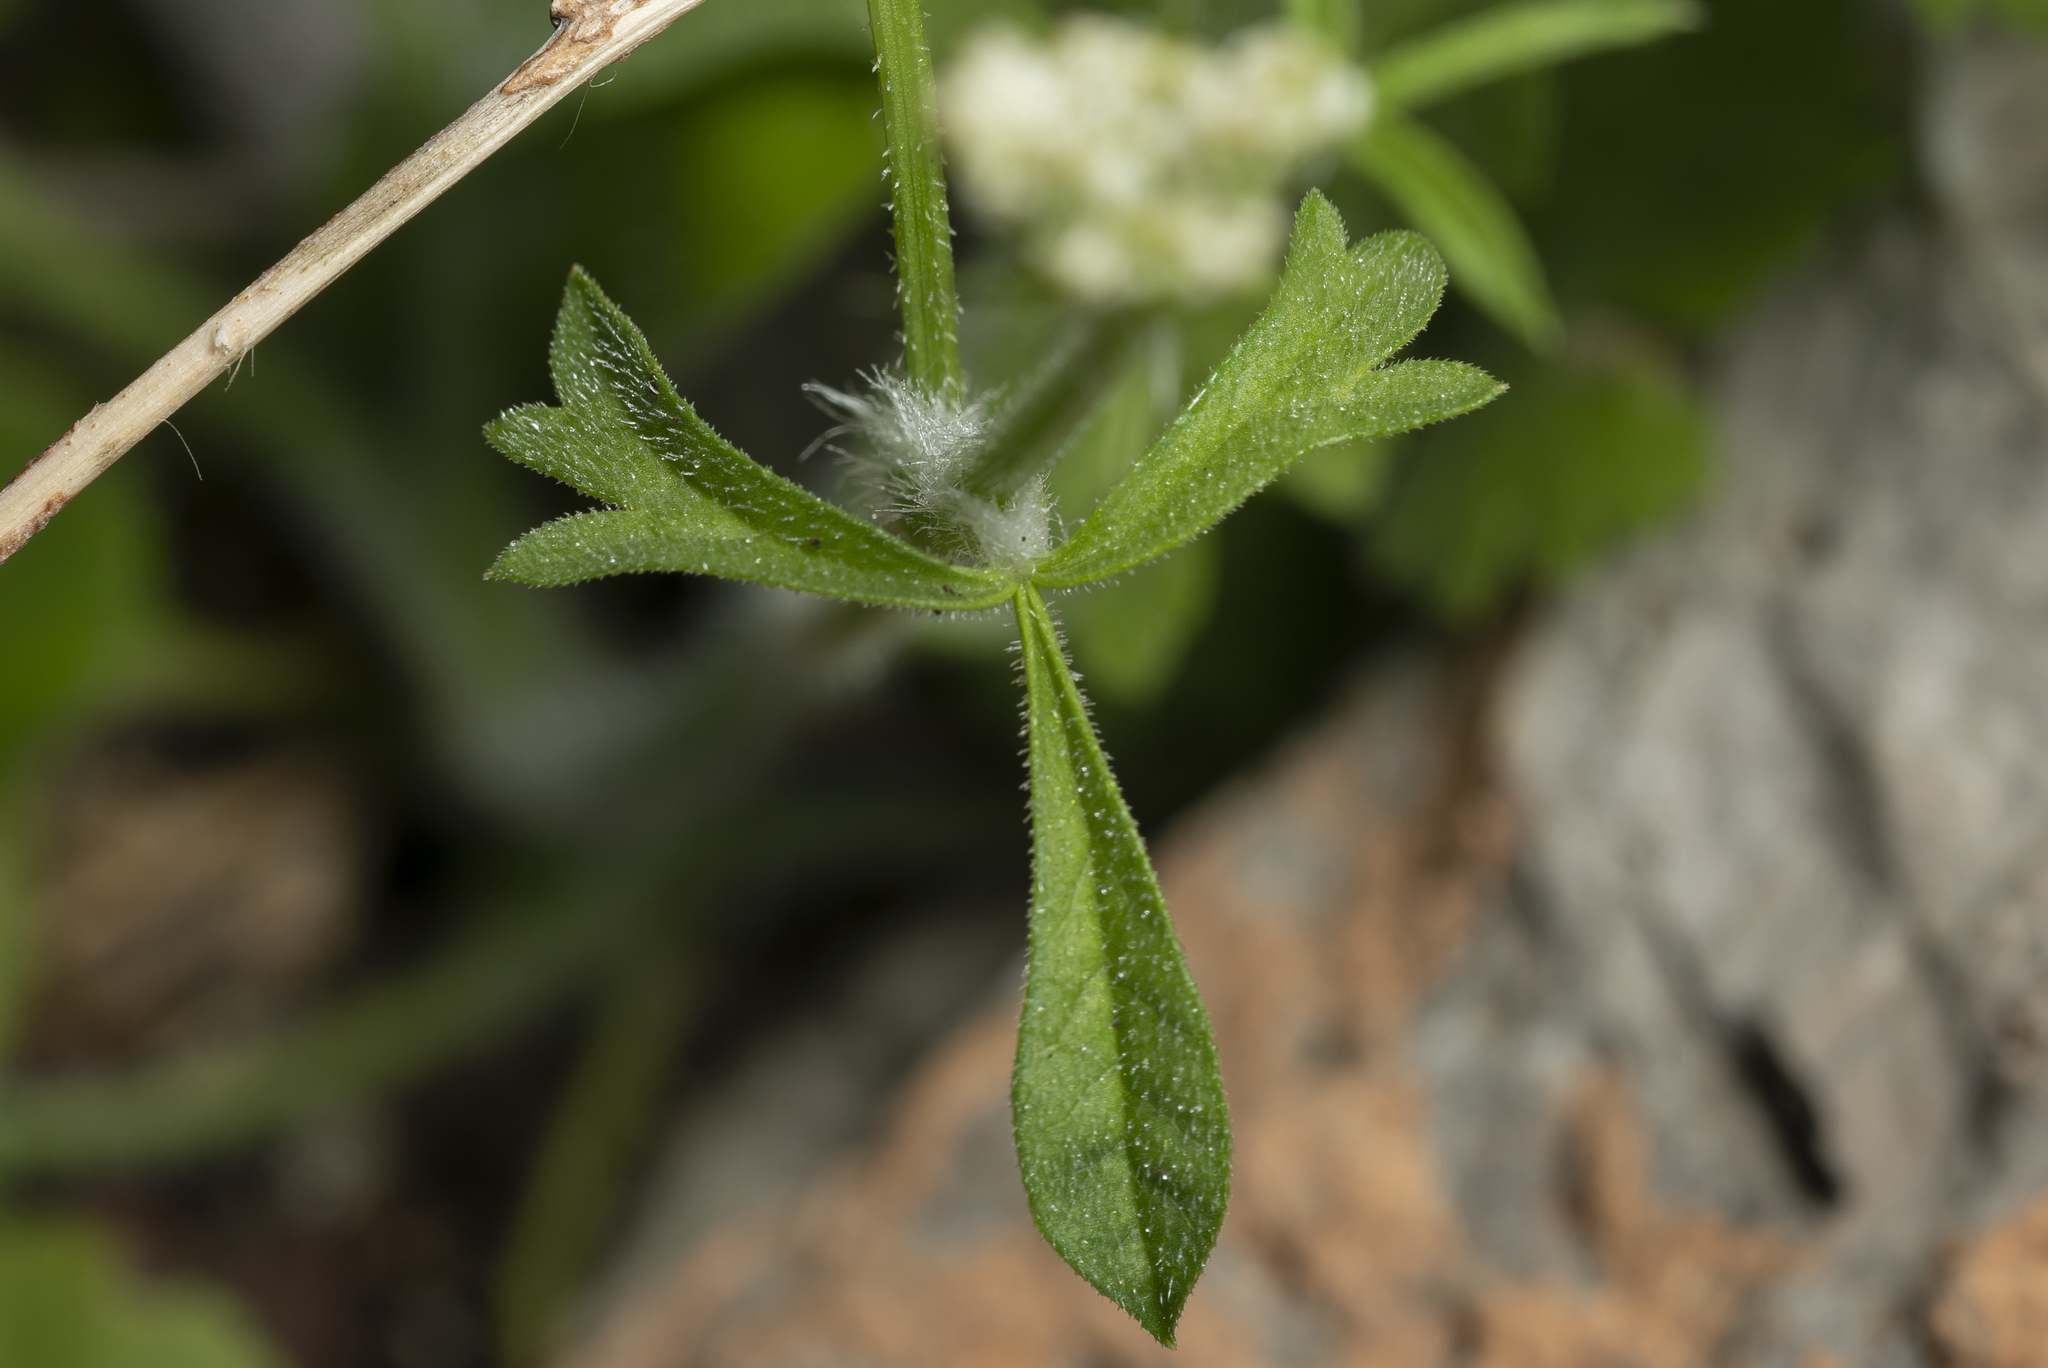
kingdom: Plantae
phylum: Tracheophyta
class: Magnoliopsida
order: Apiales
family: Apiaceae
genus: Tordylium
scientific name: Tordylium apulum
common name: Mediterranean hartwort
